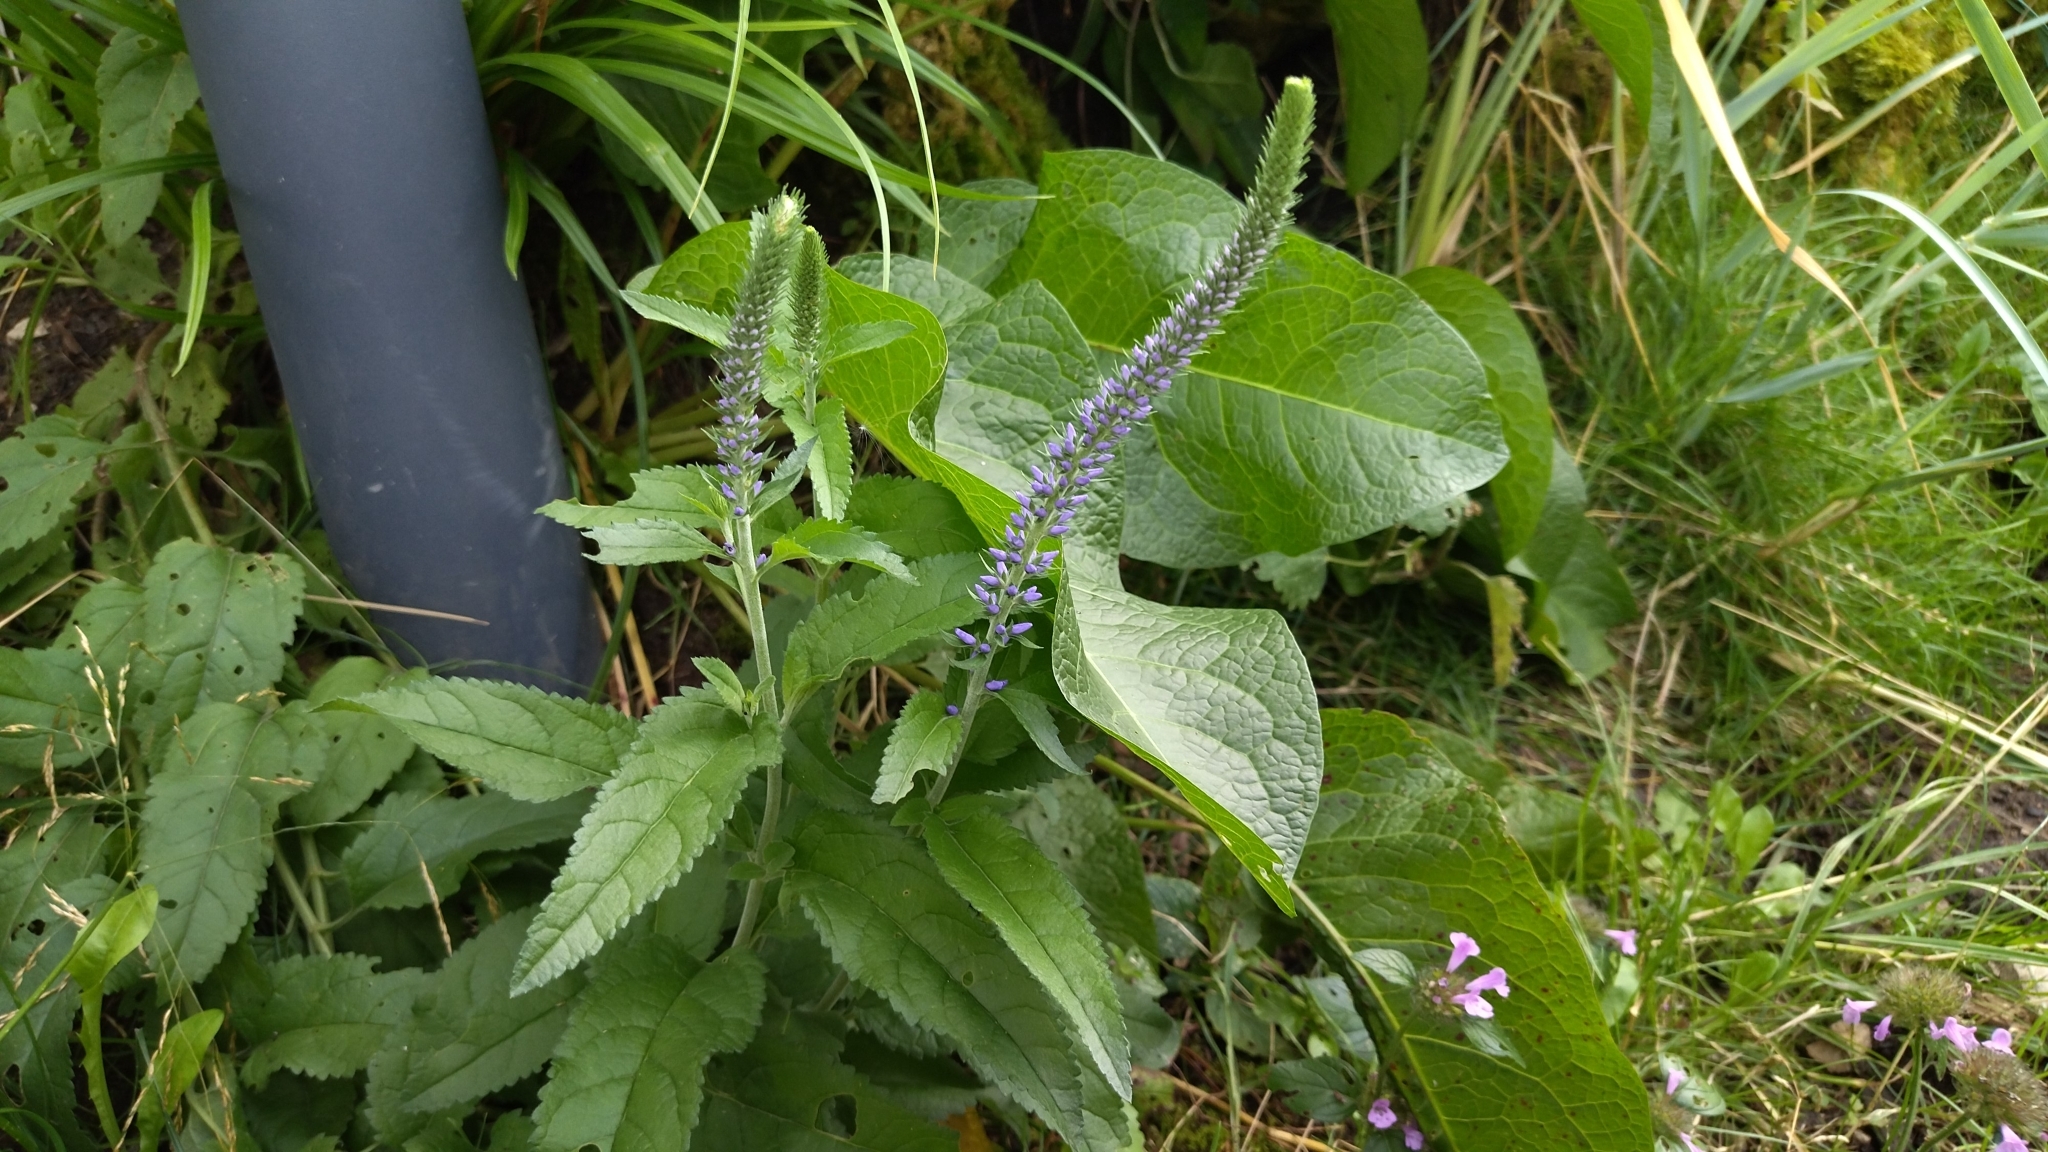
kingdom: Plantae
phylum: Tracheophyta
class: Magnoliopsida
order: Lamiales
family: Plantaginaceae
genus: Veronica
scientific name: Veronica longifolia
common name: Garden speedwell
